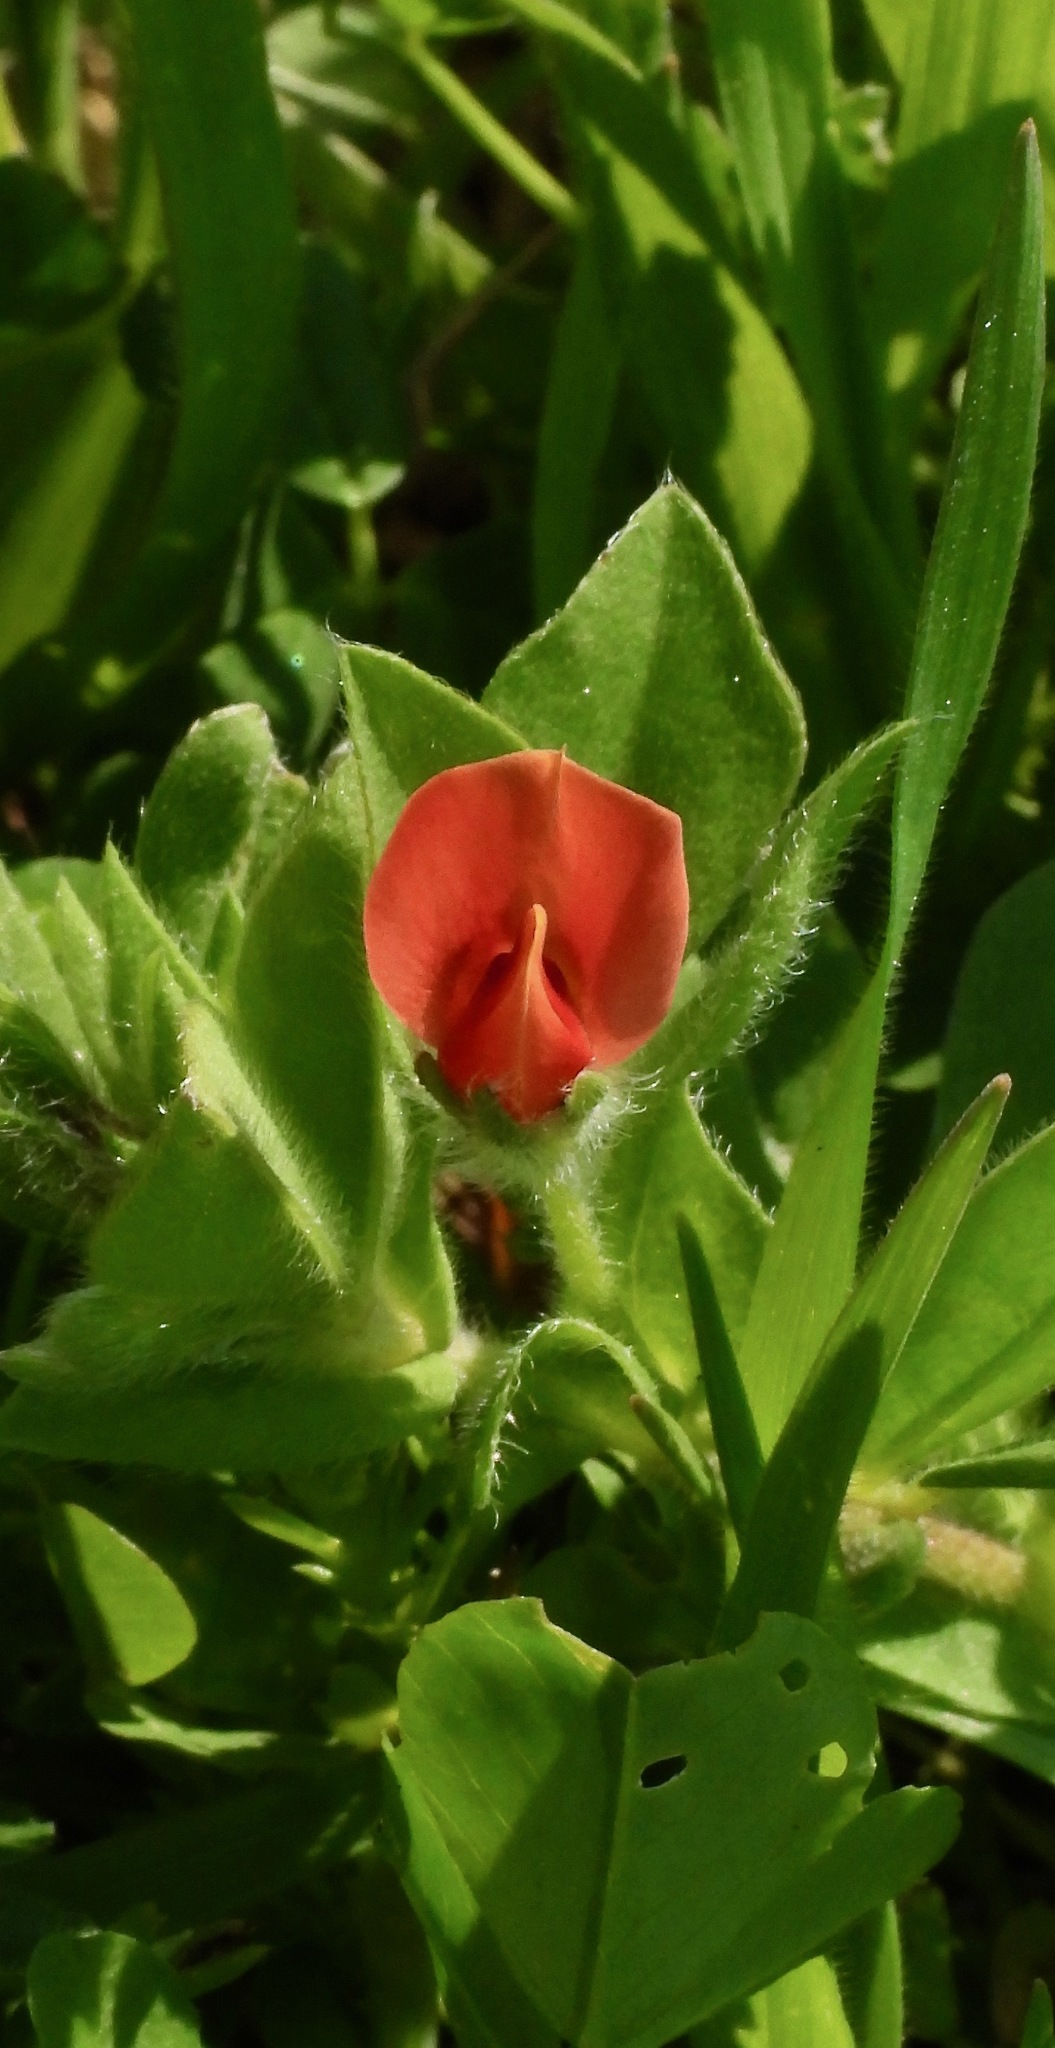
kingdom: Plantae
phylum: Tracheophyta
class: Magnoliopsida
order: Fabales
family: Fabaceae
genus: Lotus
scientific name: Lotus tetragonolobus
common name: Asparagus-pea
